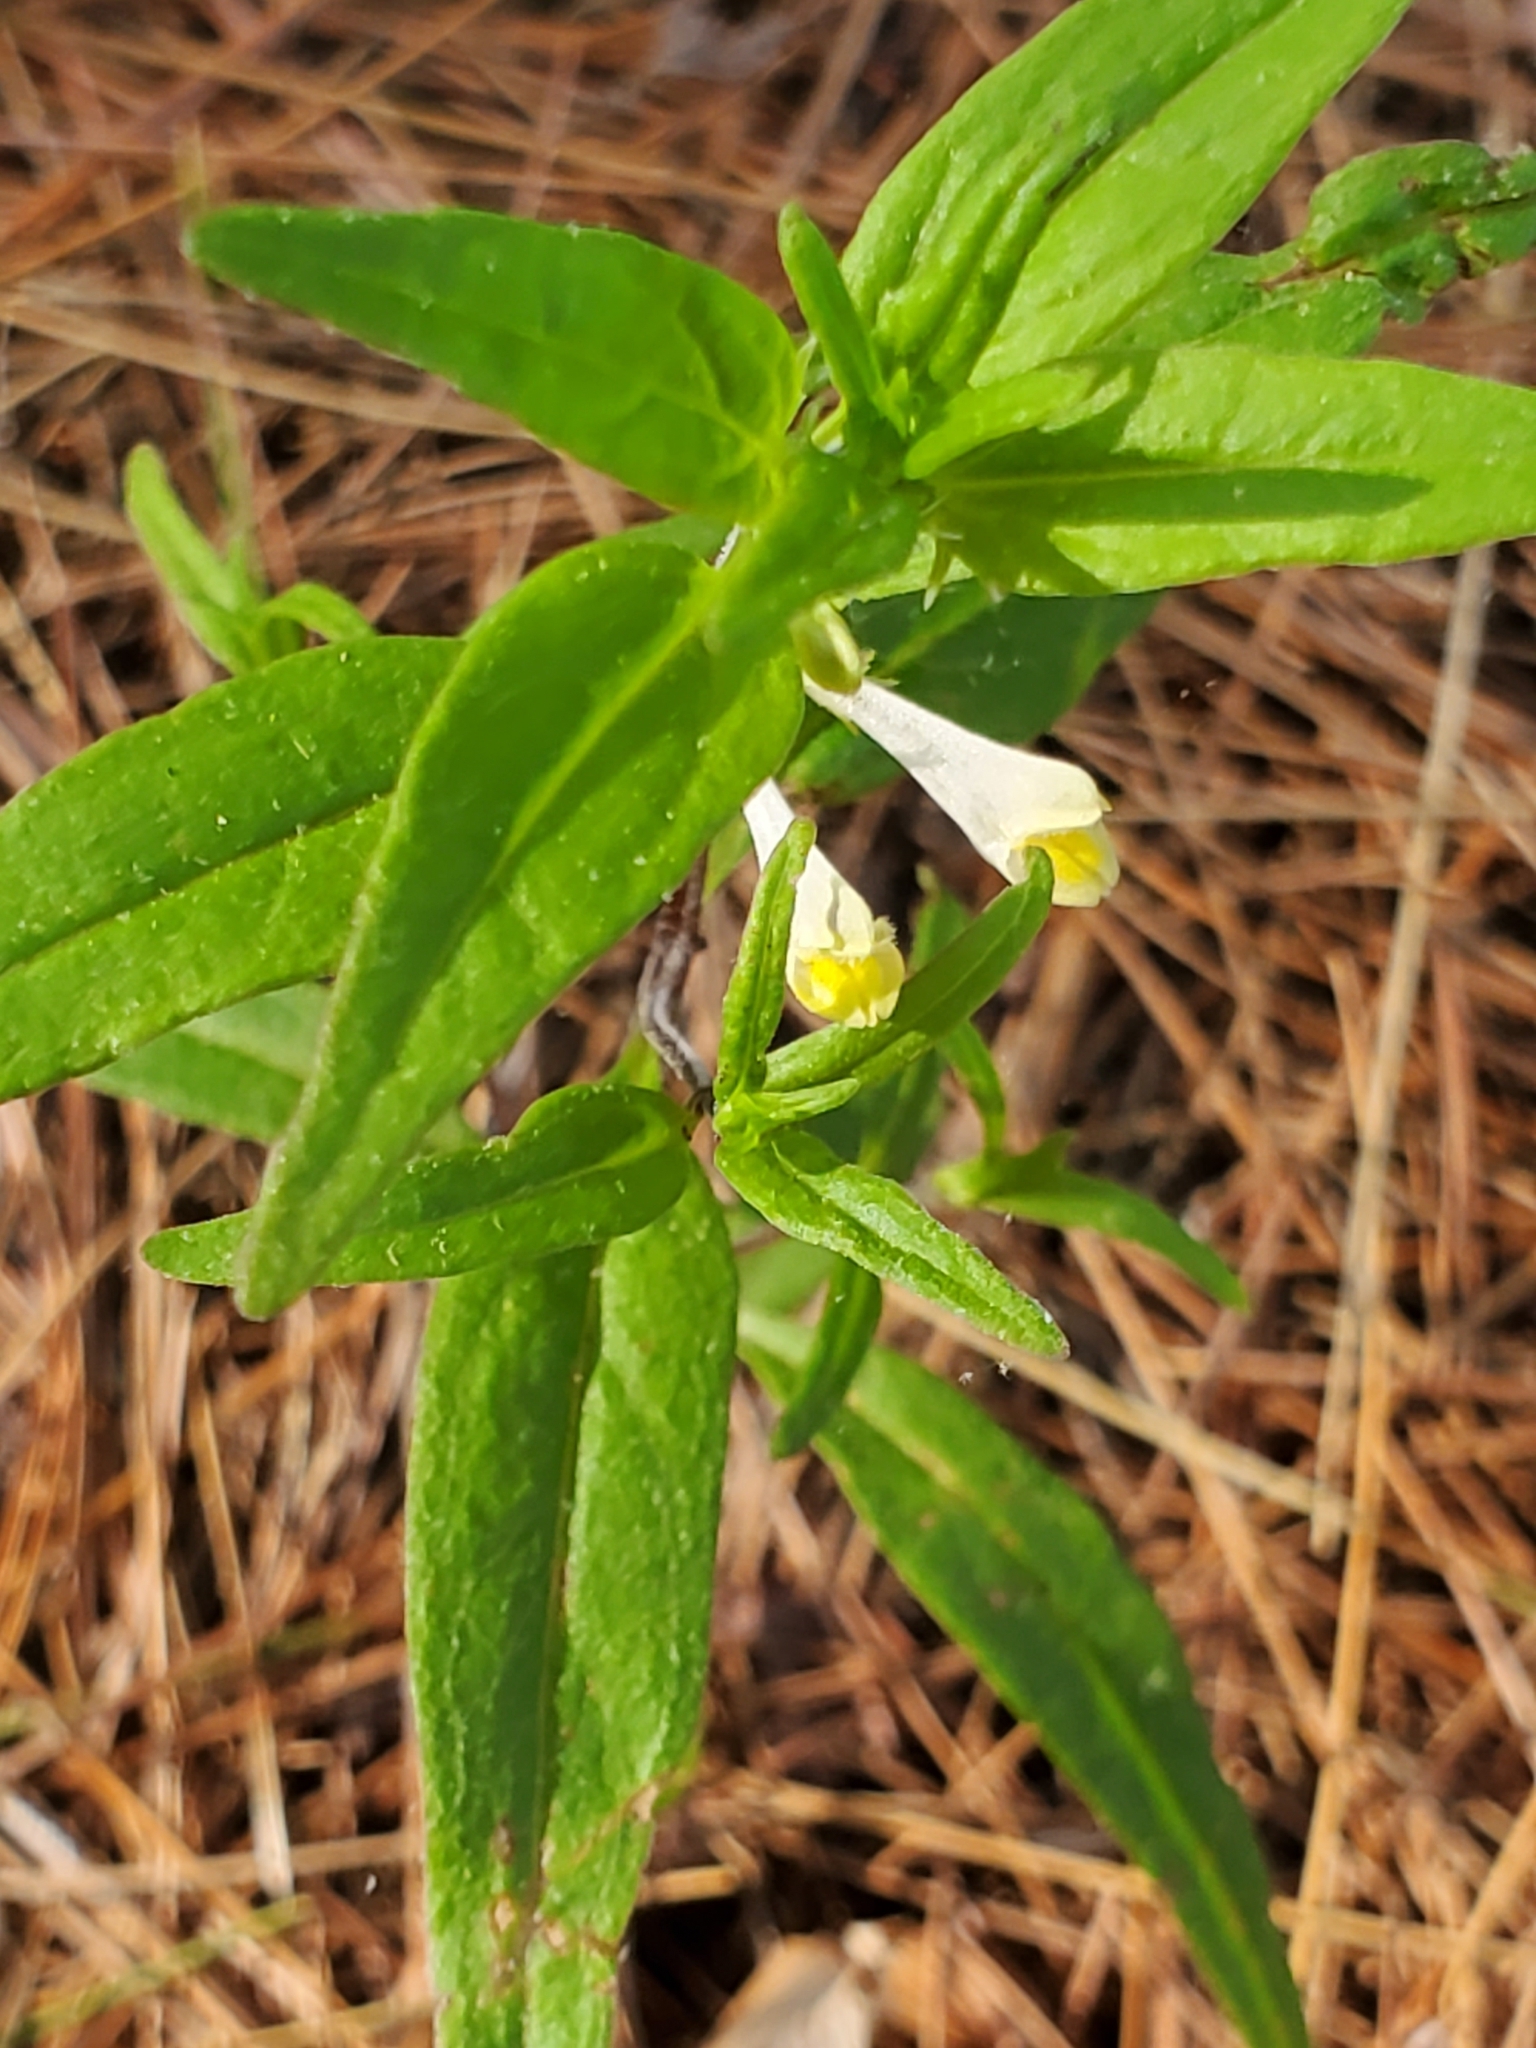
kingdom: Plantae
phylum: Tracheophyta
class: Magnoliopsida
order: Lamiales
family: Orobanchaceae
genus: Melampyrum
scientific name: Melampyrum lineare
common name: American cow-wheat
